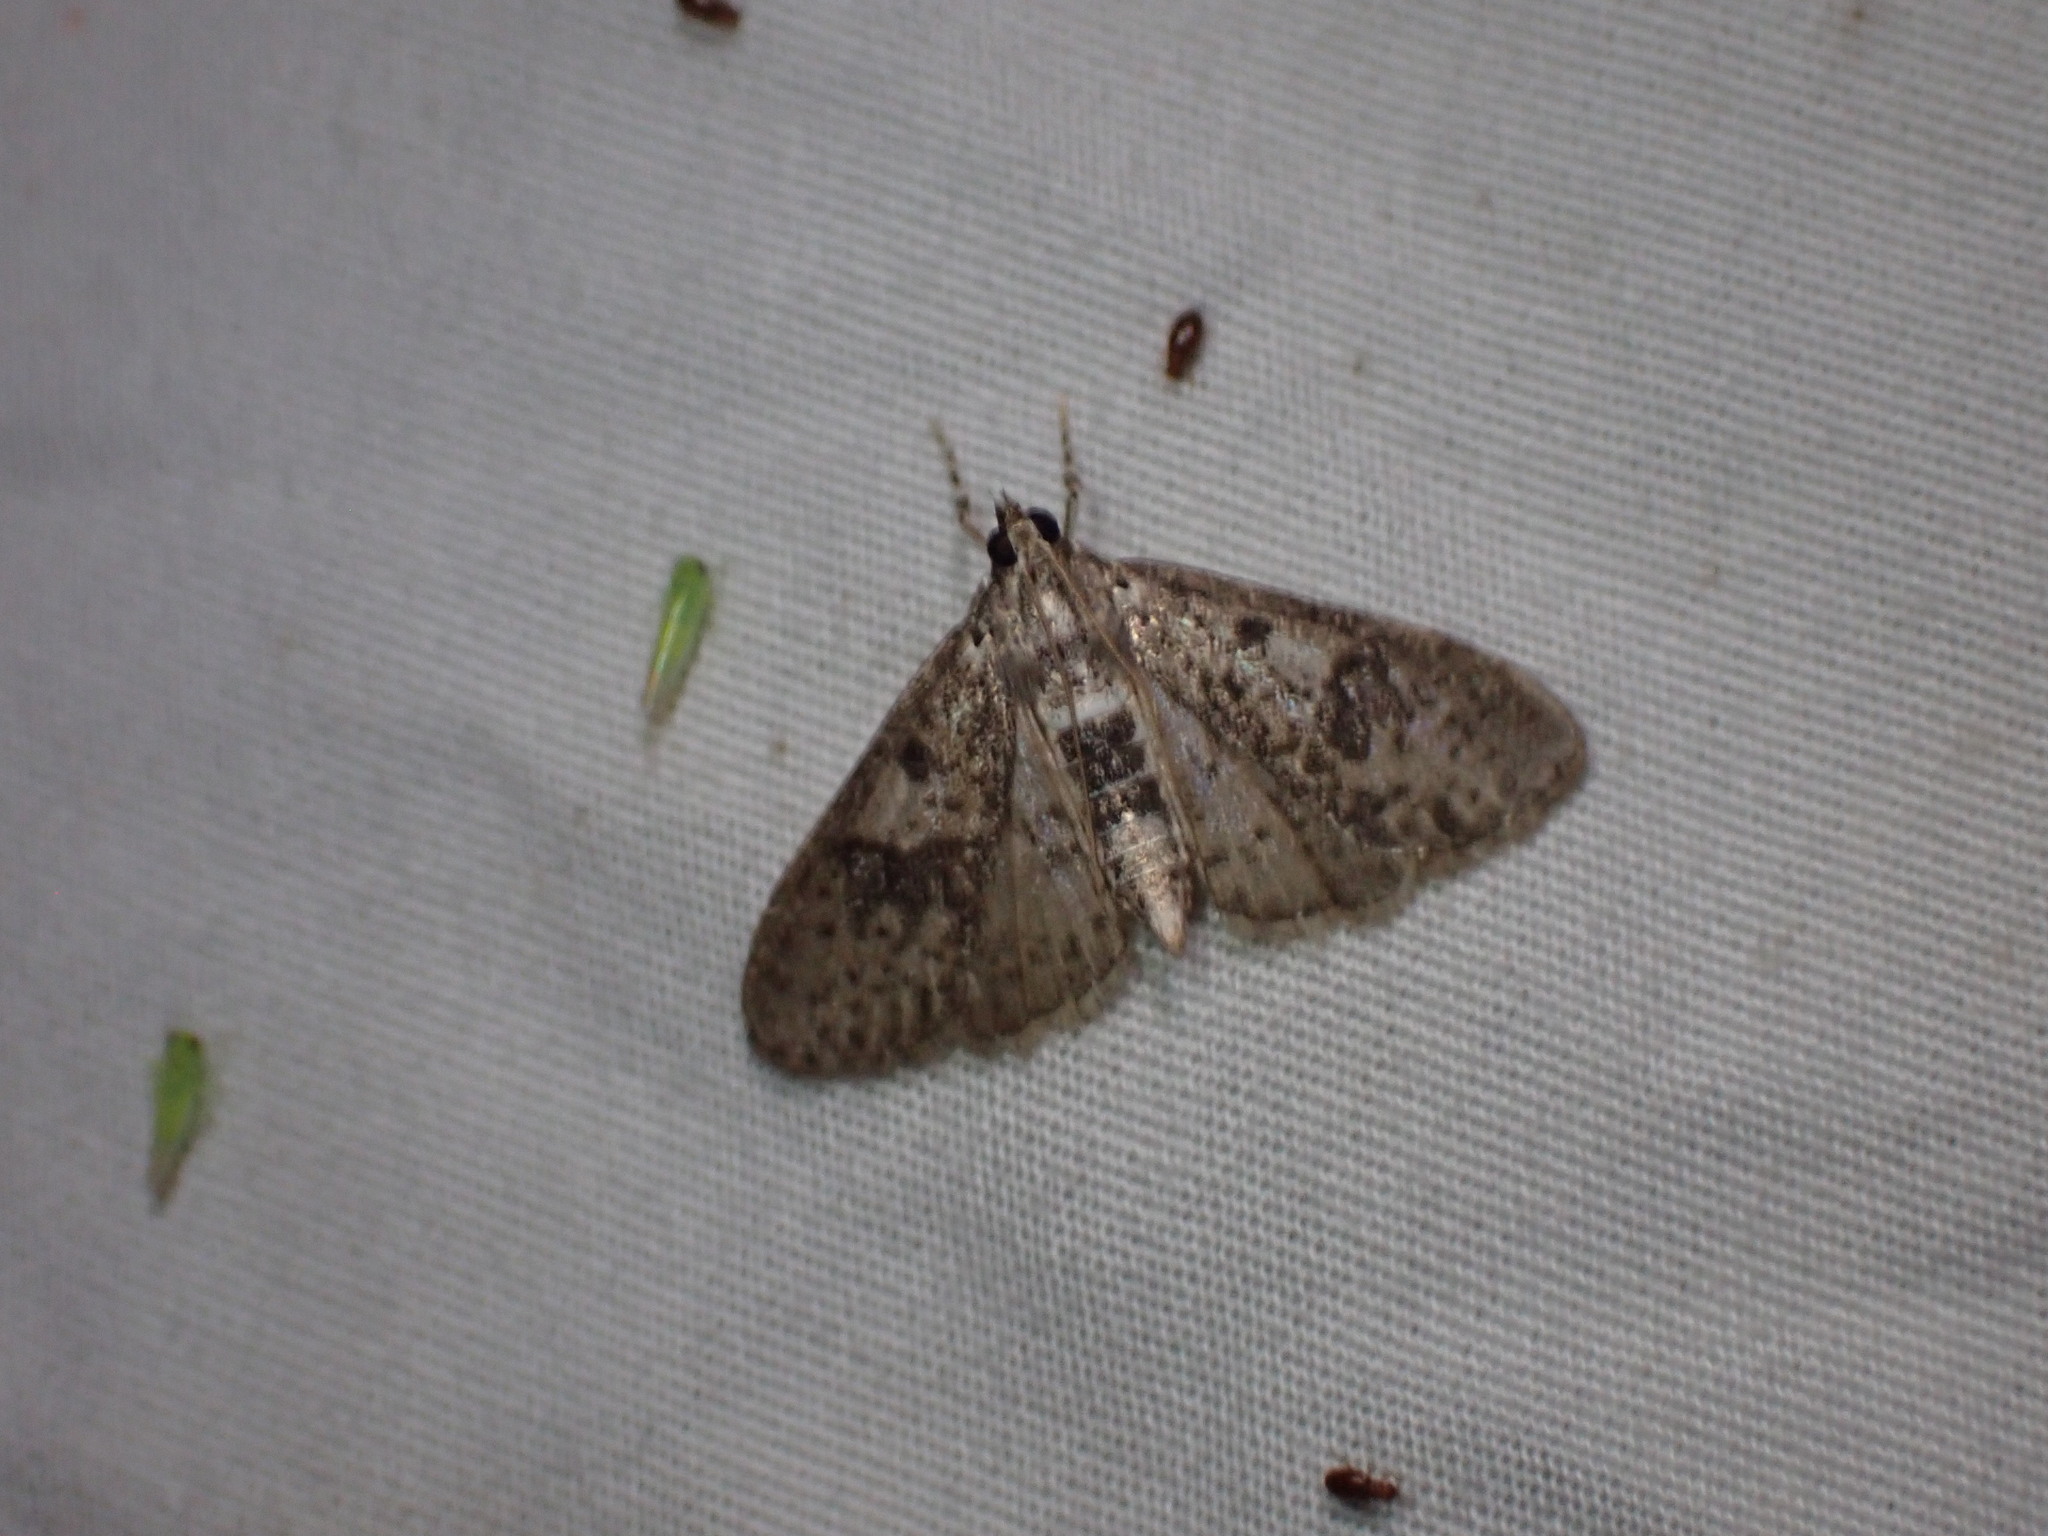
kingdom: Animalia
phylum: Arthropoda
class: Insecta
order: Lepidoptera
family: Crambidae
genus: Palpita
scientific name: Palpita magniferalis
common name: Splendid palpita moth
